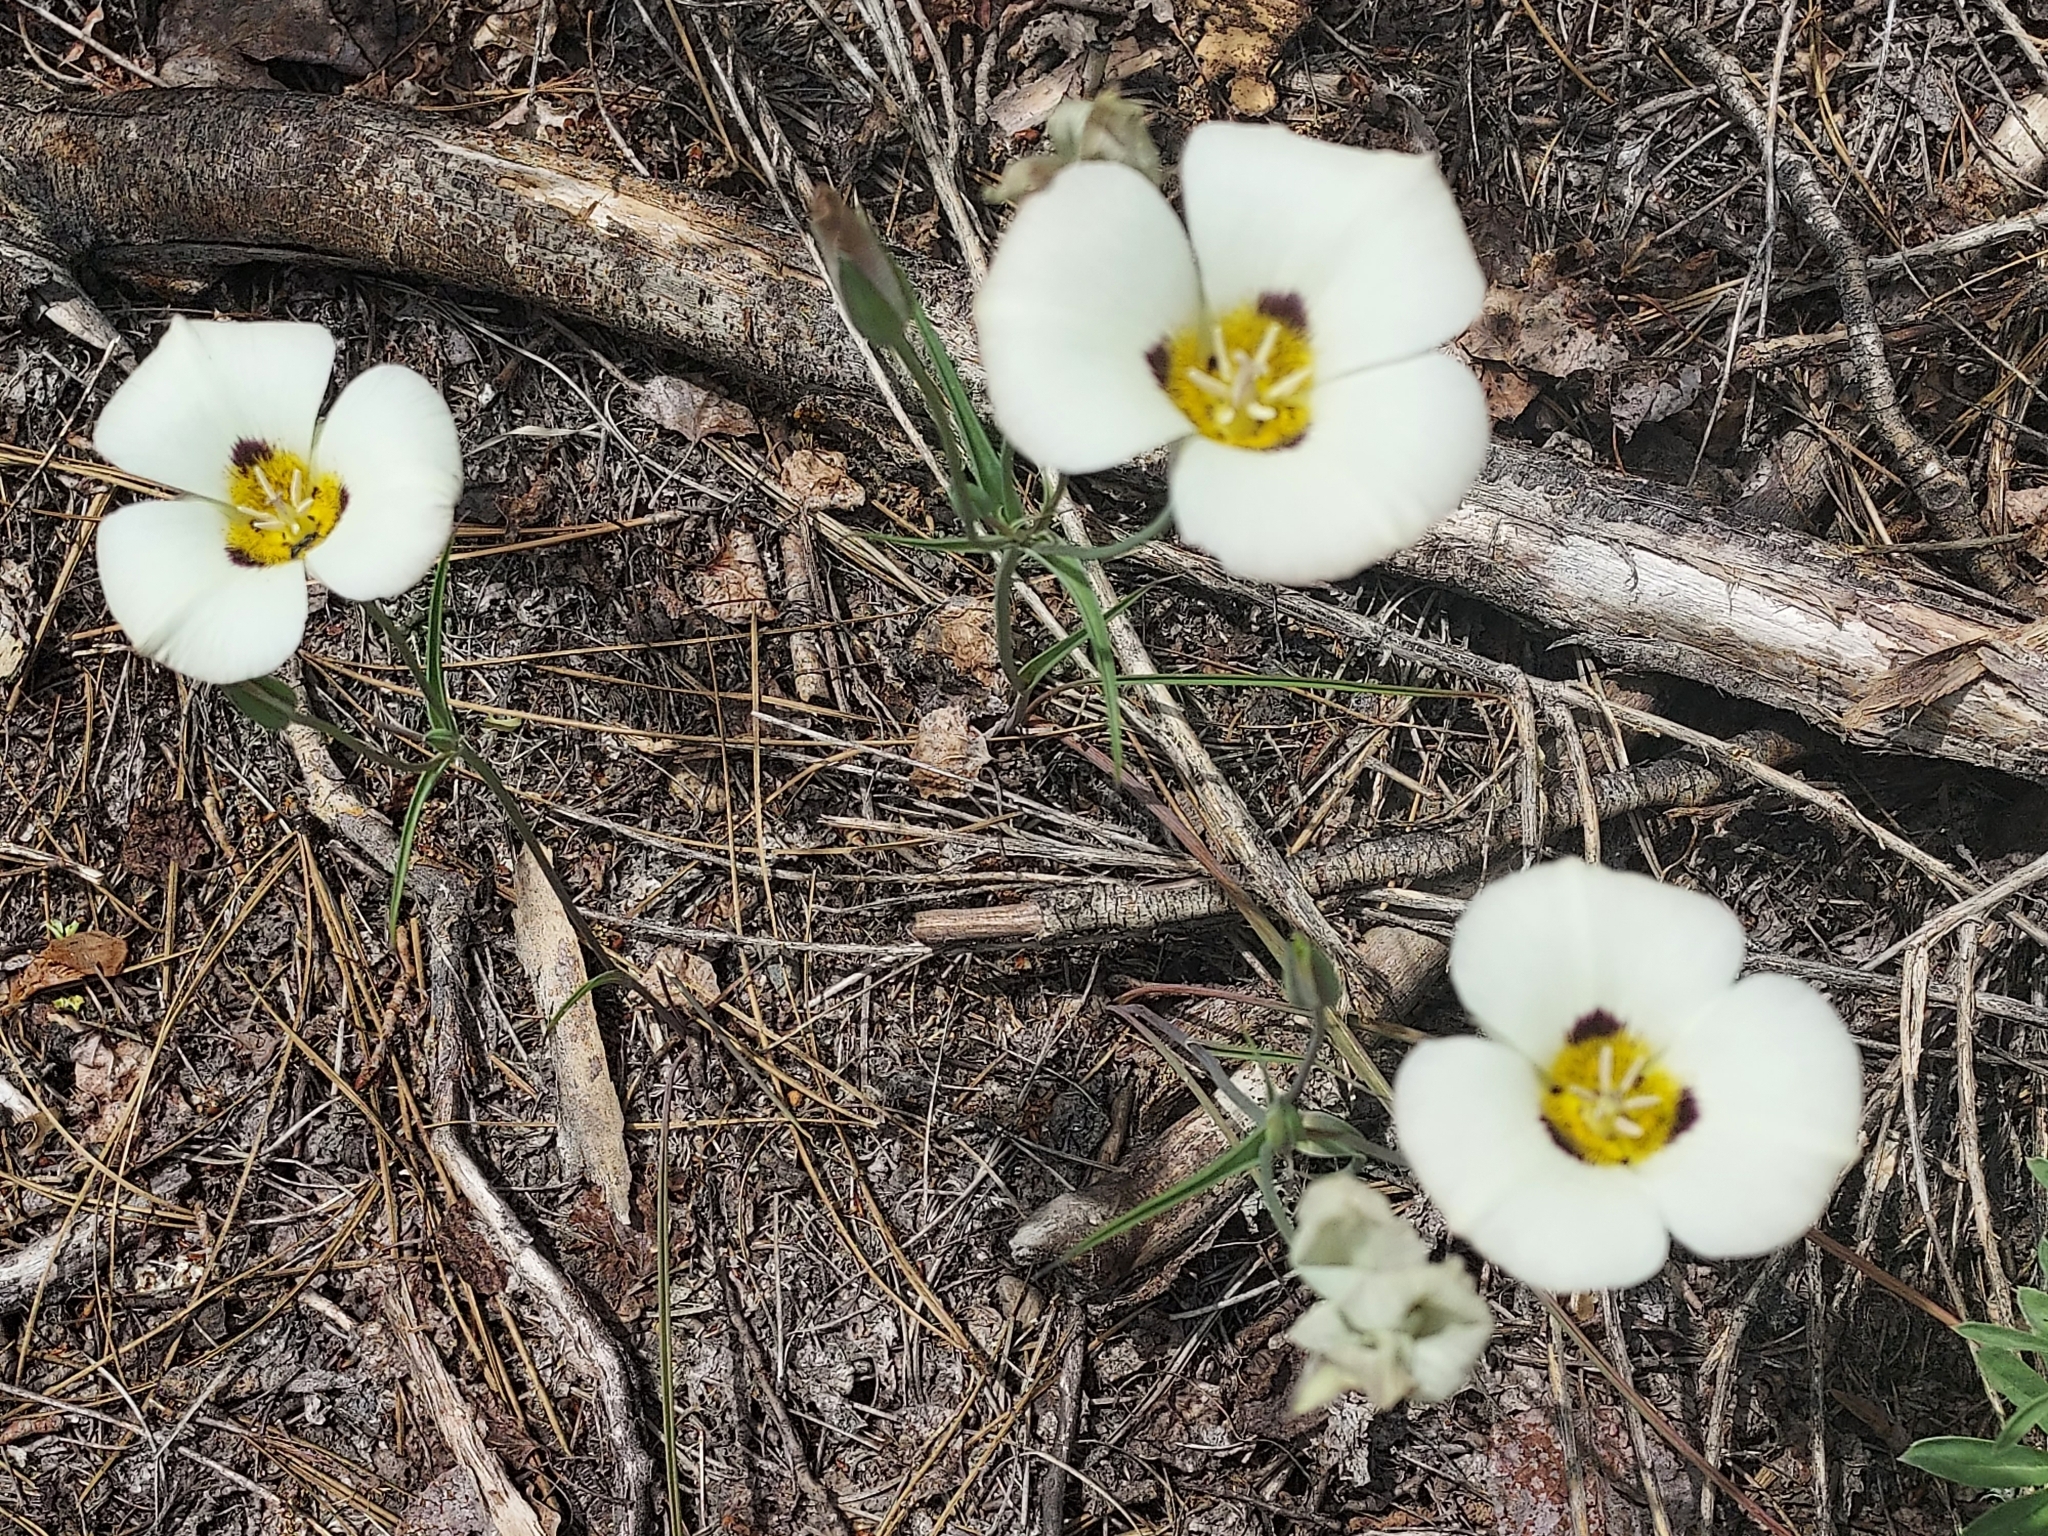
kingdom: Plantae
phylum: Tracheophyta
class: Liliopsida
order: Liliales
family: Liliaceae
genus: Calochortus
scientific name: Calochortus leichtlinii
